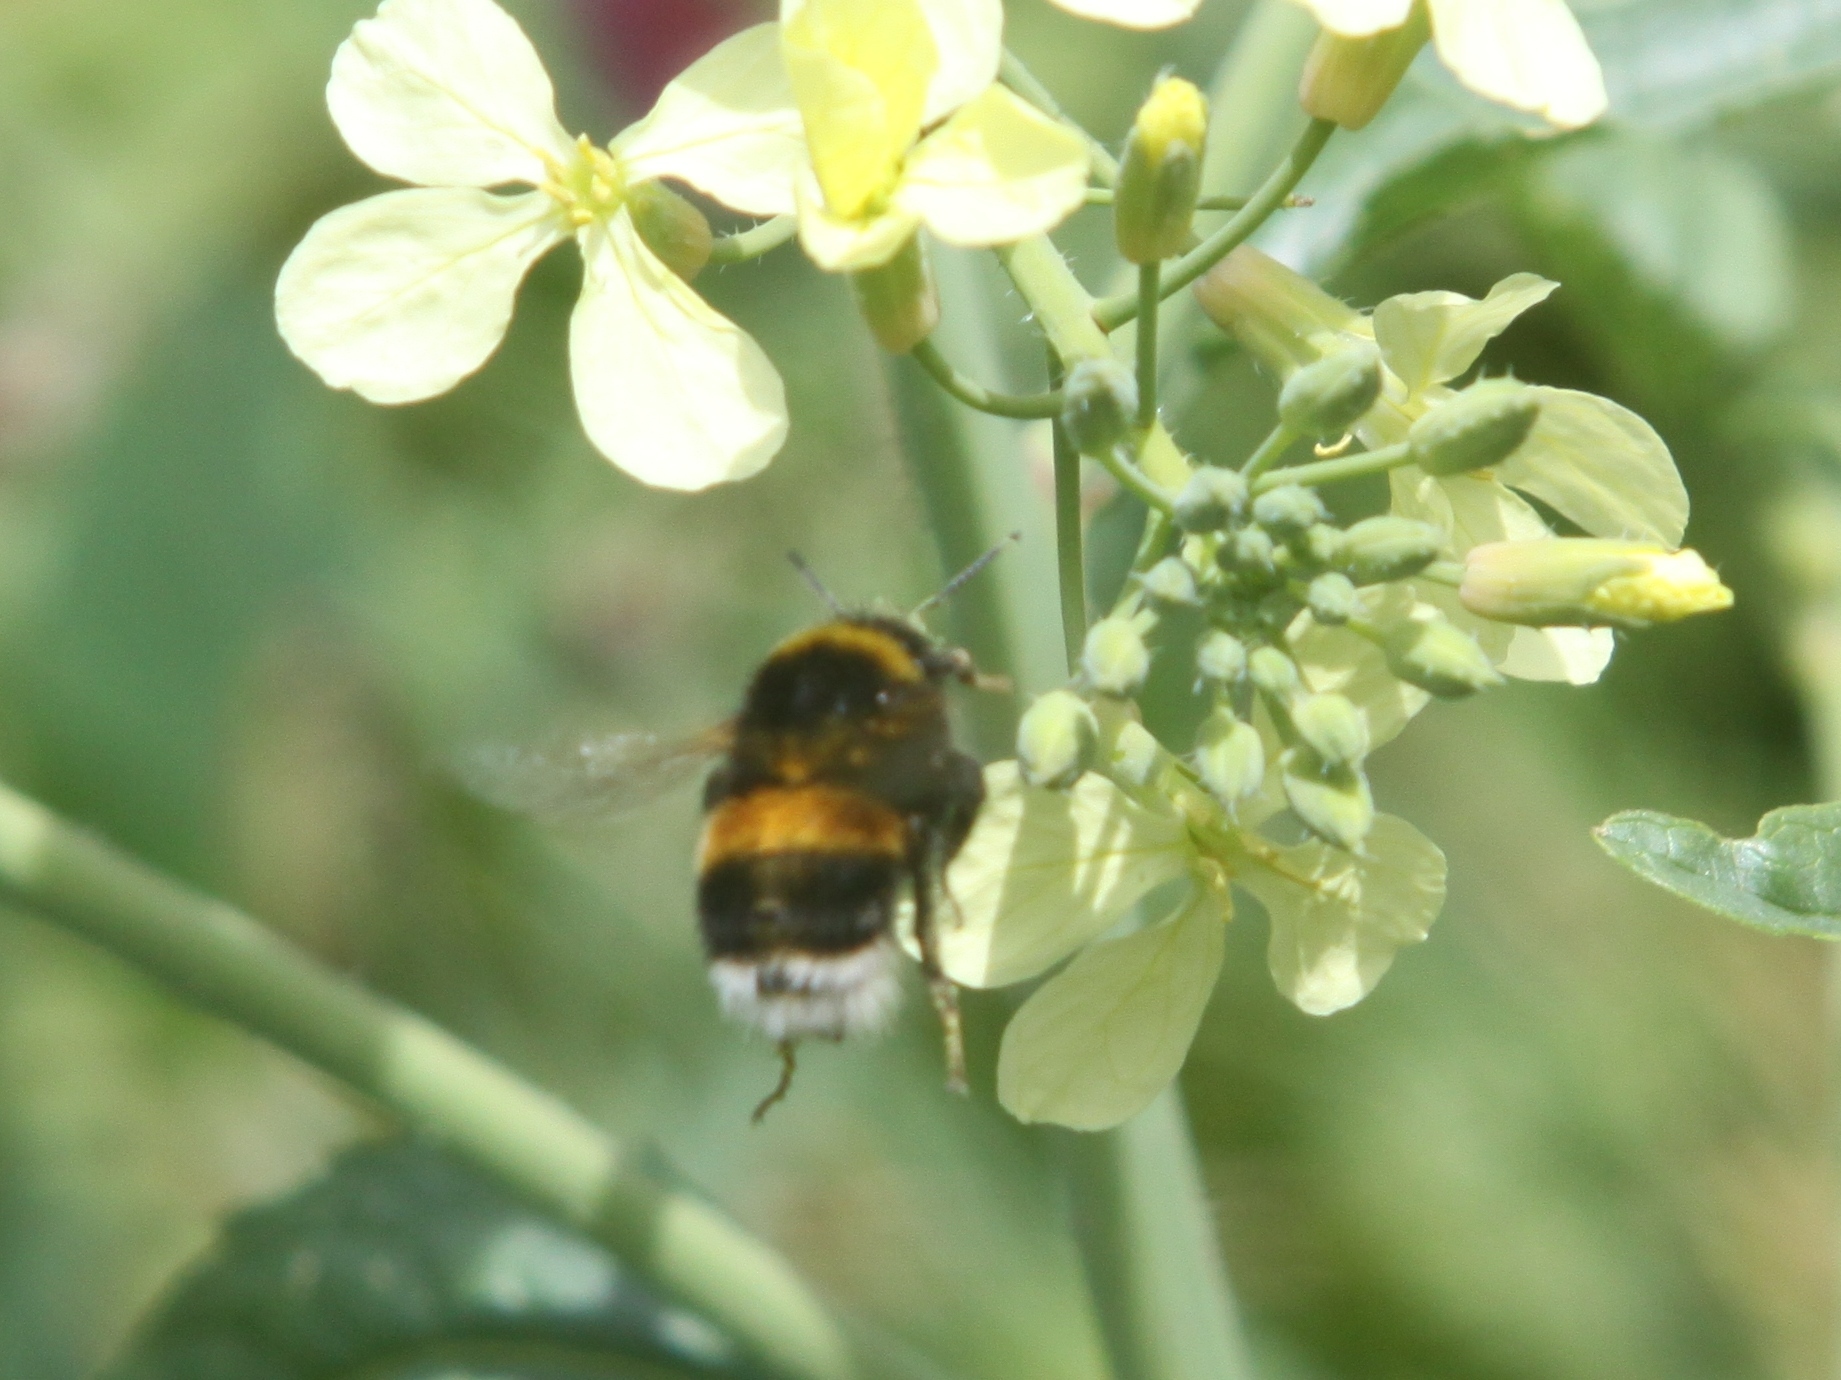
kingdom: Animalia
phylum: Arthropoda
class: Insecta
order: Hymenoptera
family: Apidae
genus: Bombus
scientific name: Bombus terrestris
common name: Buff-tailed bumblebee
